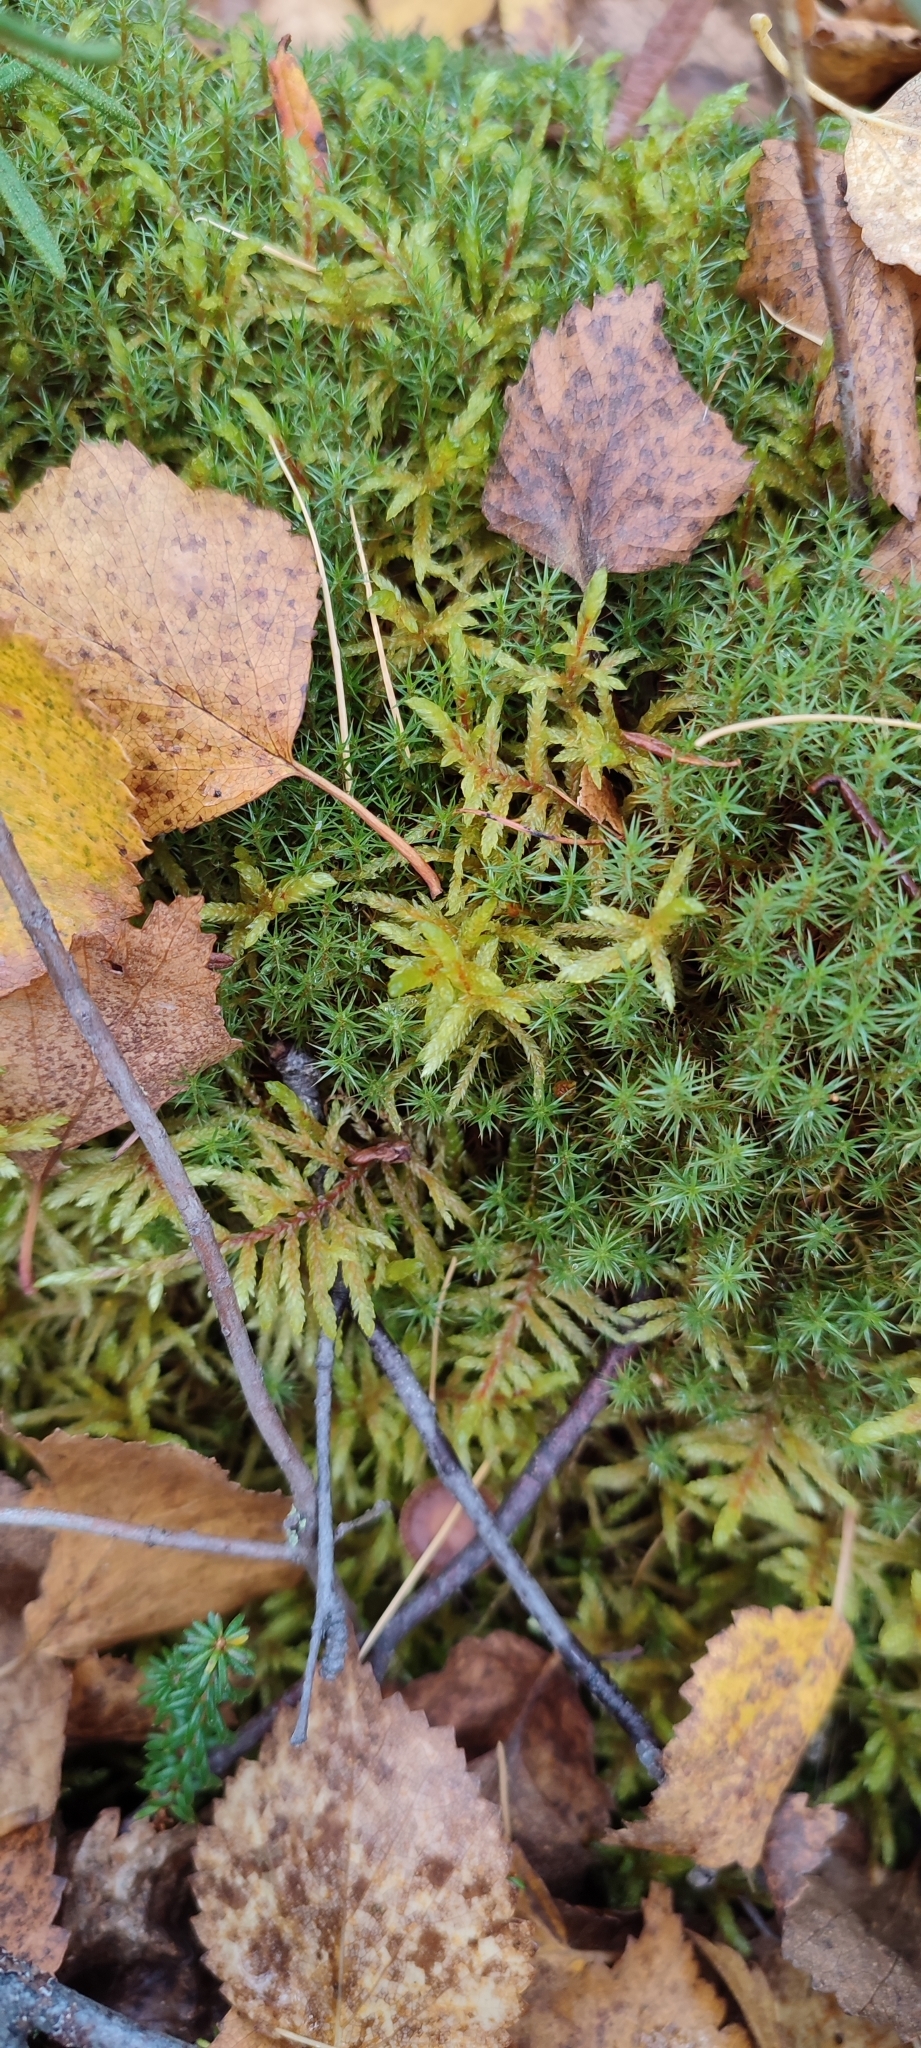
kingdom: Plantae
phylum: Bryophyta
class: Bryopsida
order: Hypnales
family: Hylocomiaceae
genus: Pleurozium
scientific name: Pleurozium schreberi
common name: Red-stemmed feather moss
